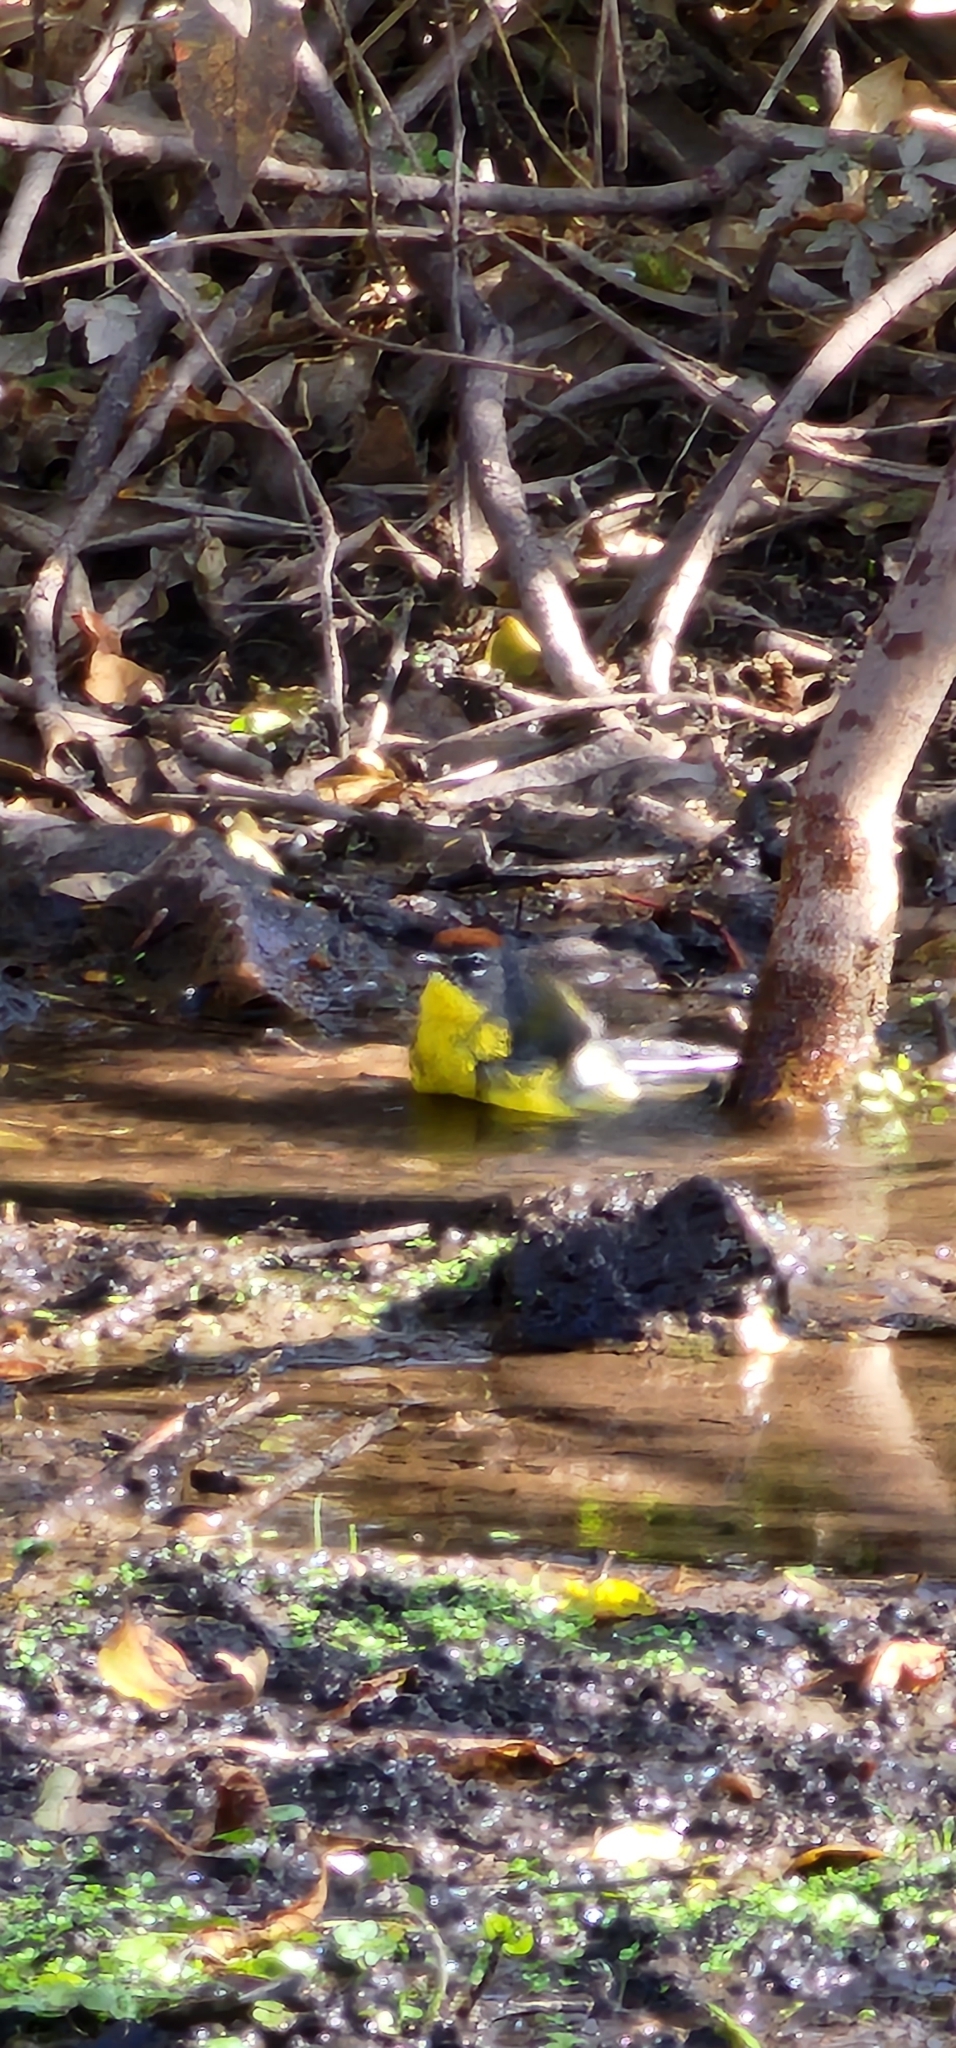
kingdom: Animalia
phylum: Chordata
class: Aves
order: Passeriformes
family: Parulidae
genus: Myioborus
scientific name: Myioborus brunniceps
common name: Brown-capped whitestart
